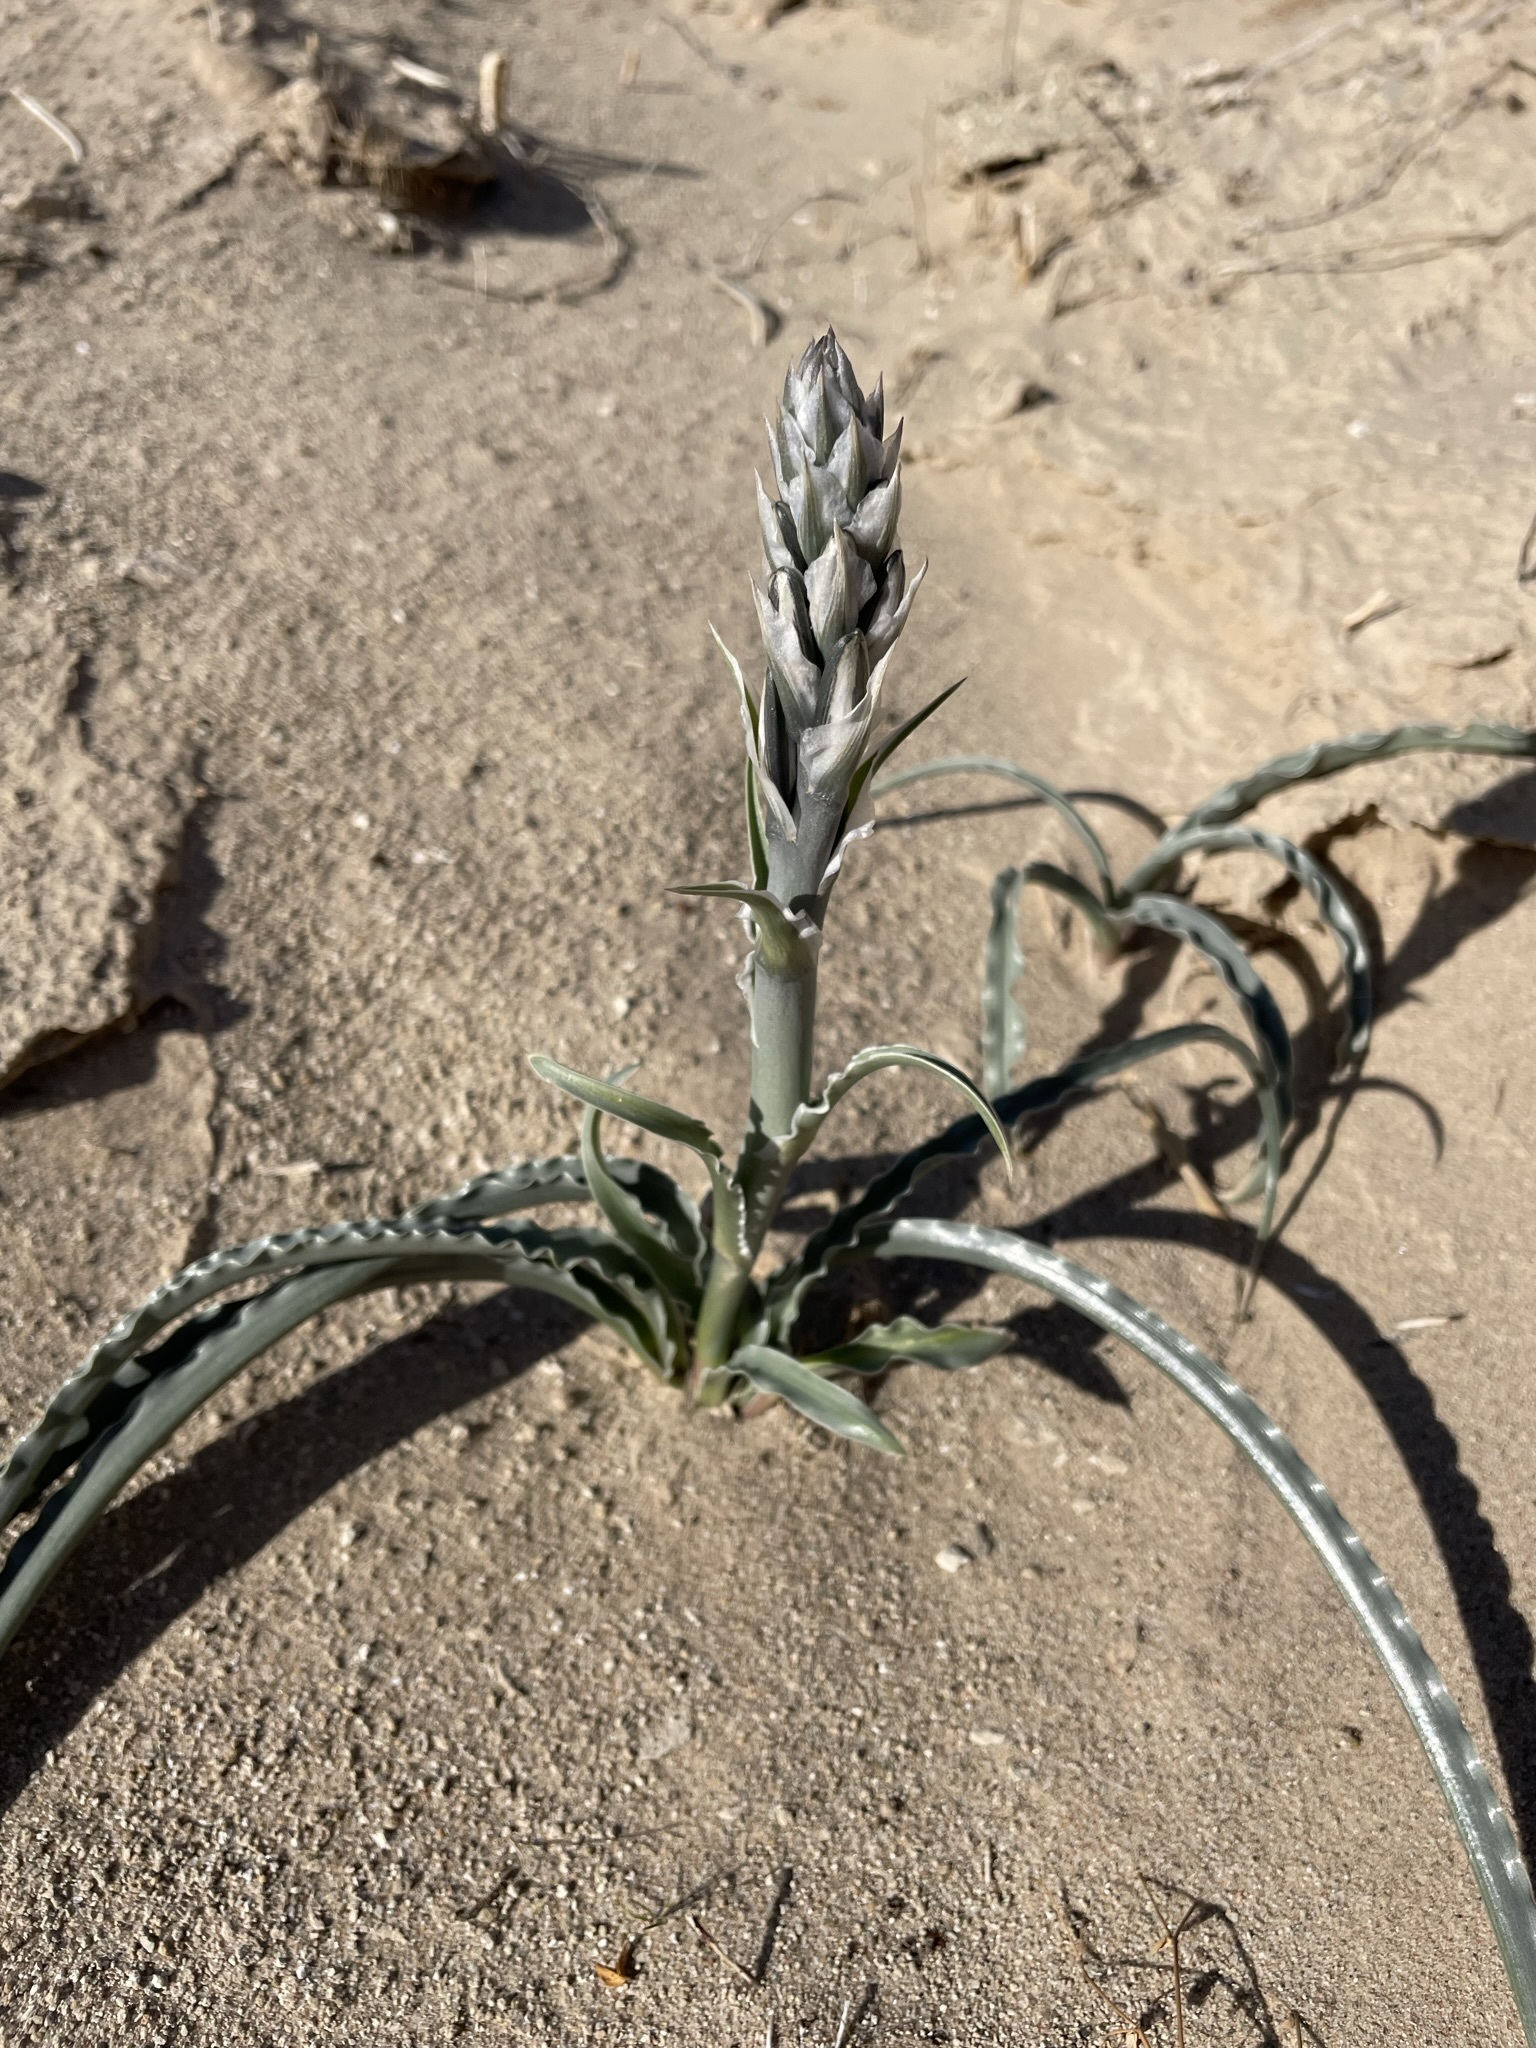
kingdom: Plantae
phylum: Tracheophyta
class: Liliopsida
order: Asparagales
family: Asparagaceae
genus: Hesperocallis
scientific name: Hesperocallis undulata
